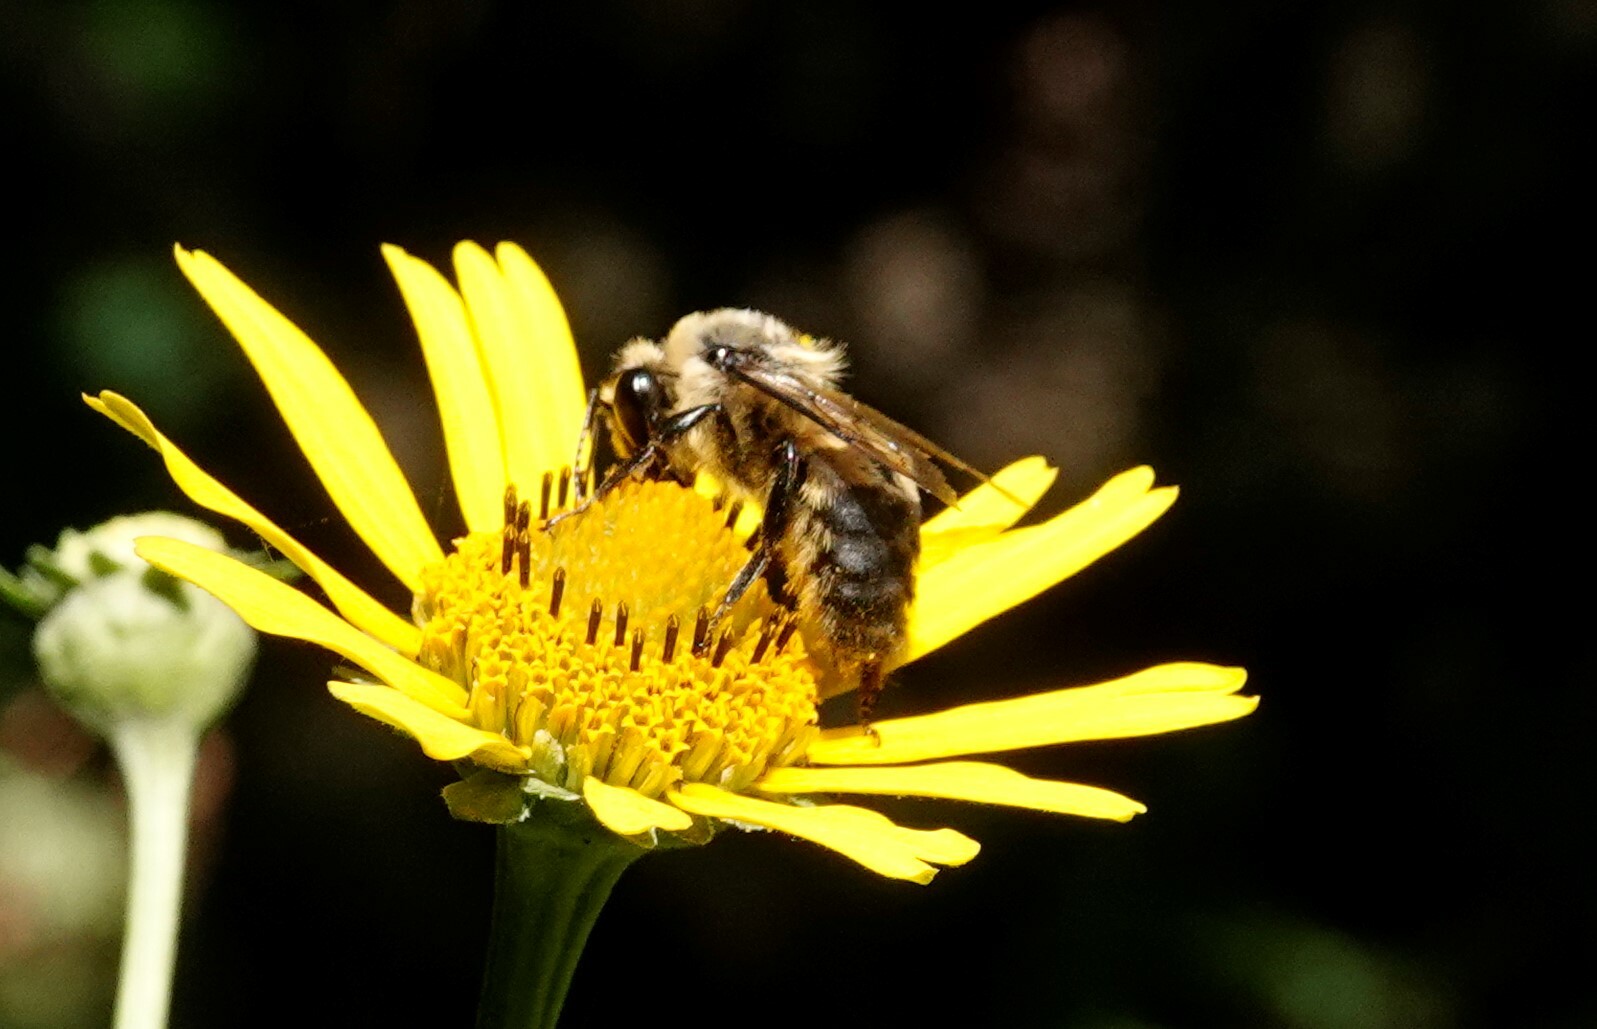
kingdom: Animalia
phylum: Arthropoda
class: Insecta
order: Hymenoptera
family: Apidae
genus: Bombus
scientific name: Bombus griseocollis
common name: Brown-belted bumble bee
